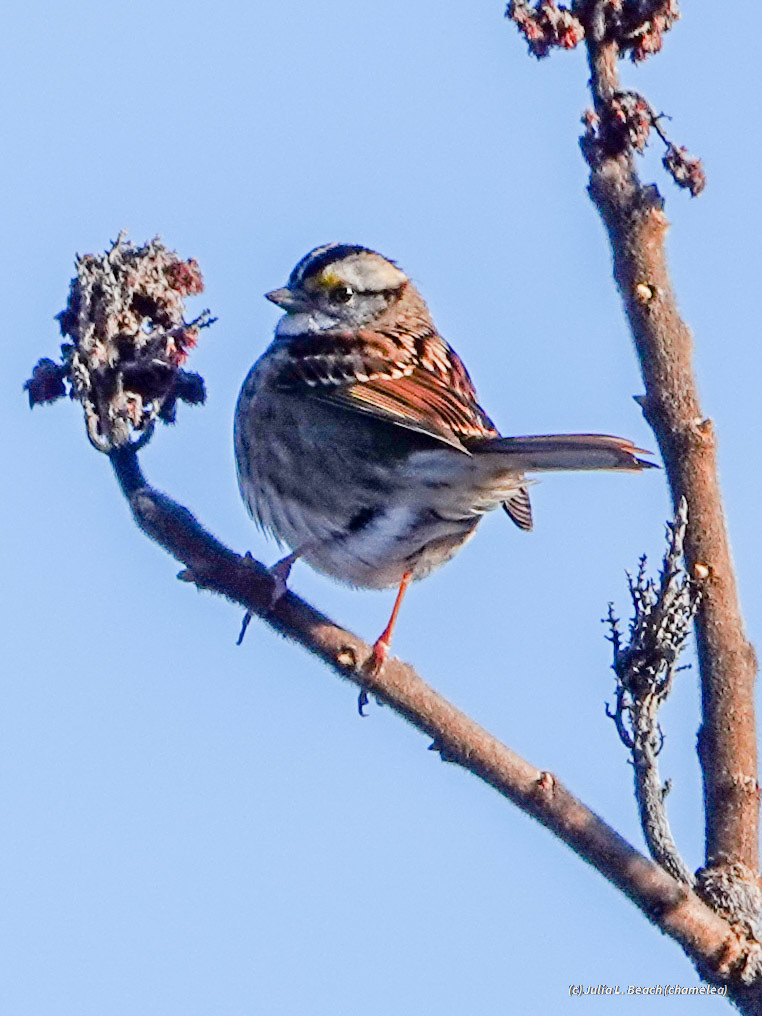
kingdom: Animalia
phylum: Chordata
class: Aves
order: Passeriformes
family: Passerellidae
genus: Zonotrichia
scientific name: Zonotrichia albicollis
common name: White-throated sparrow
